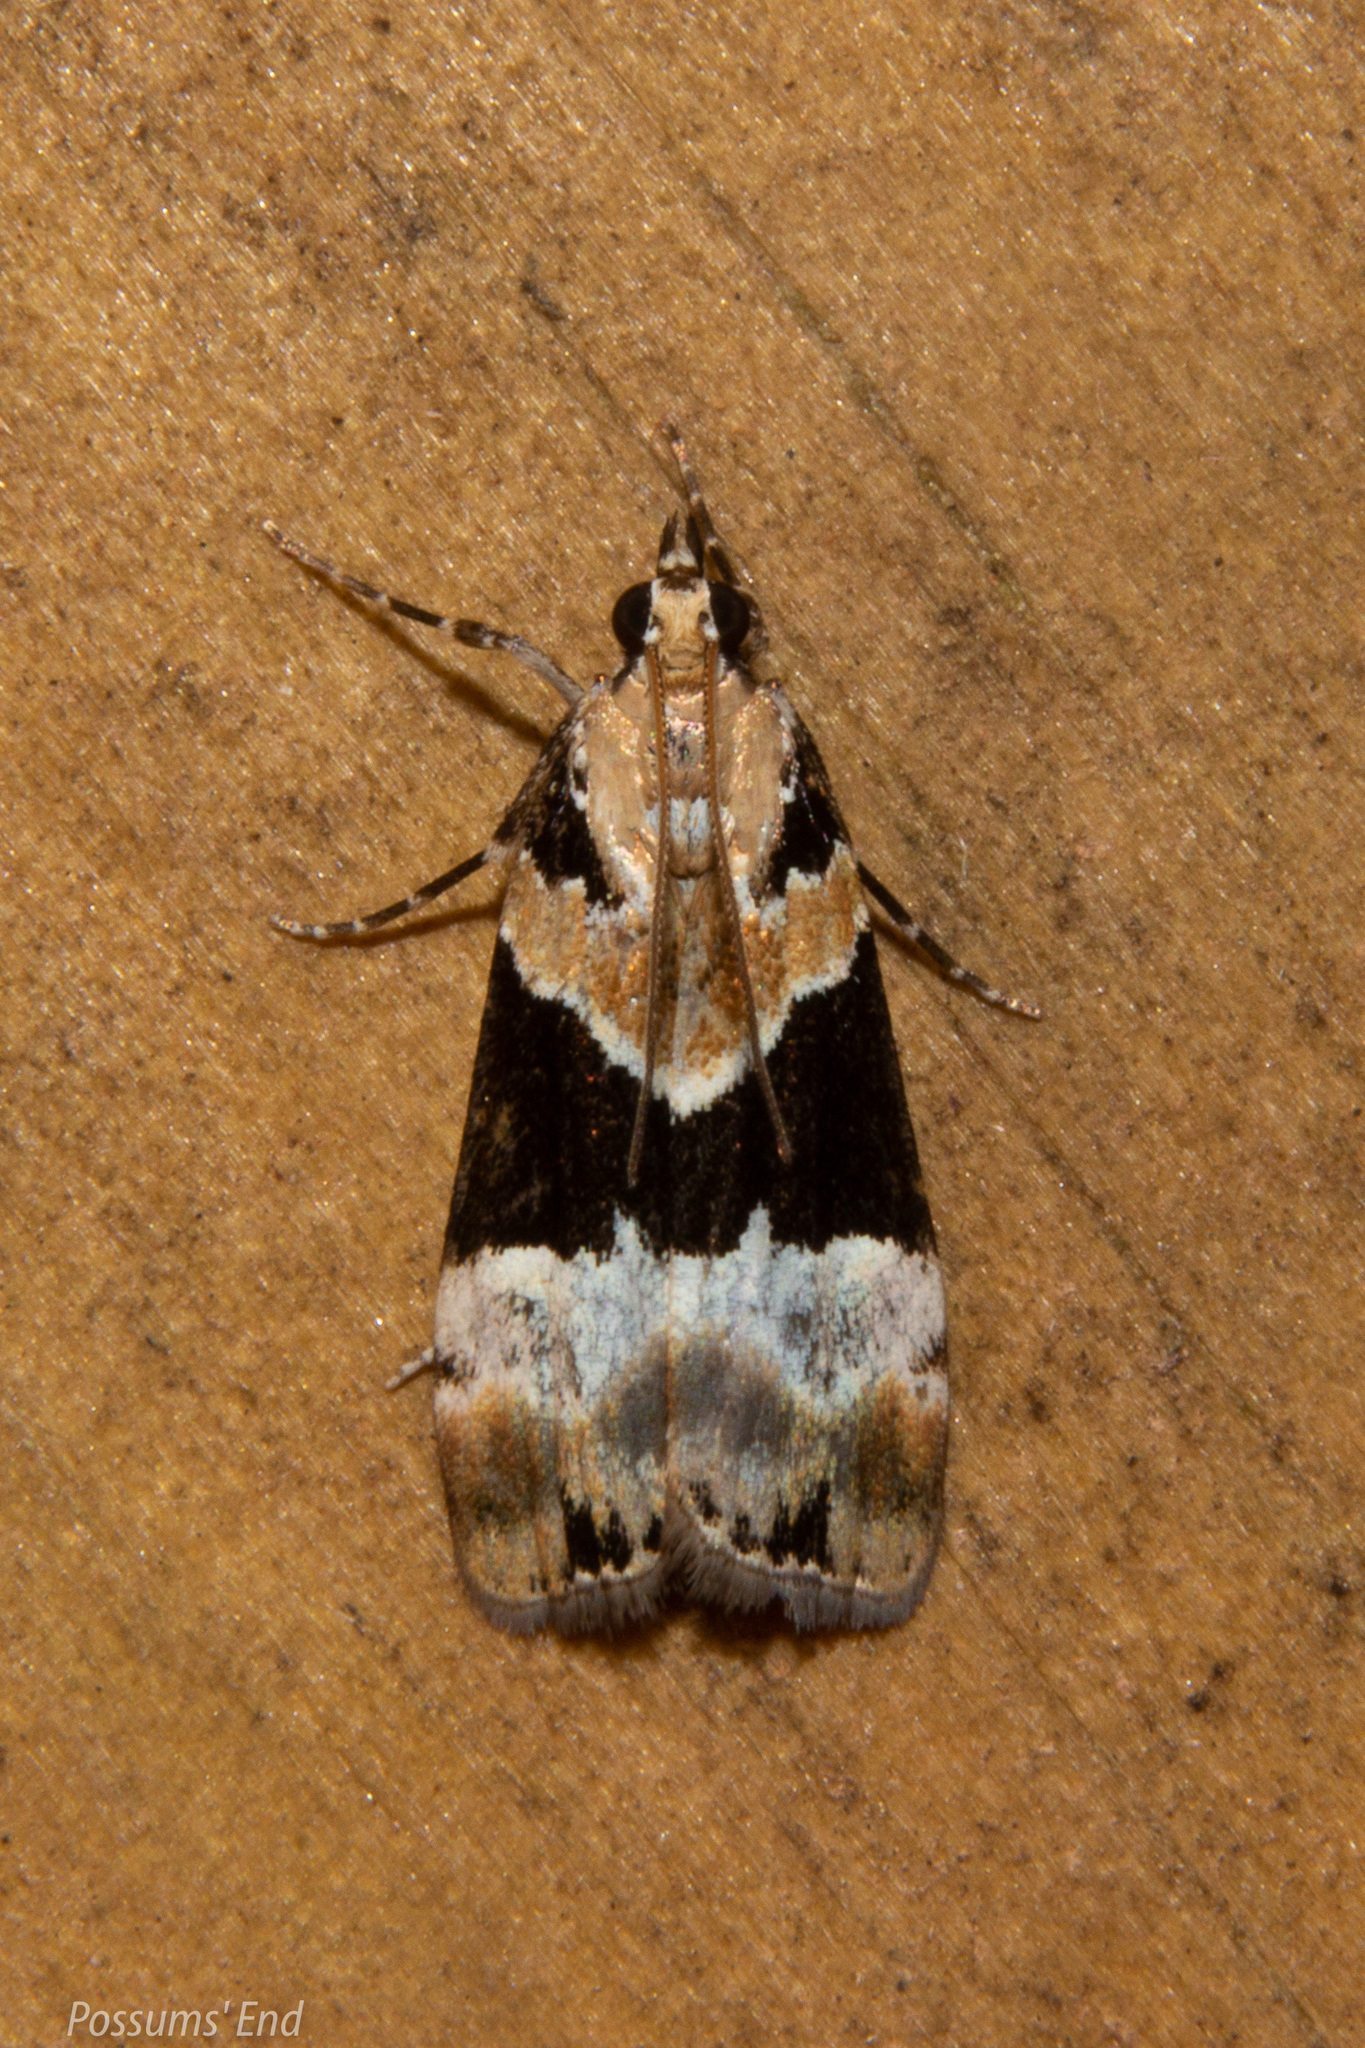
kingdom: Animalia
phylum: Arthropoda
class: Insecta
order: Lepidoptera
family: Crambidae
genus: Eudonia
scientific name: Eudonia aspidota
